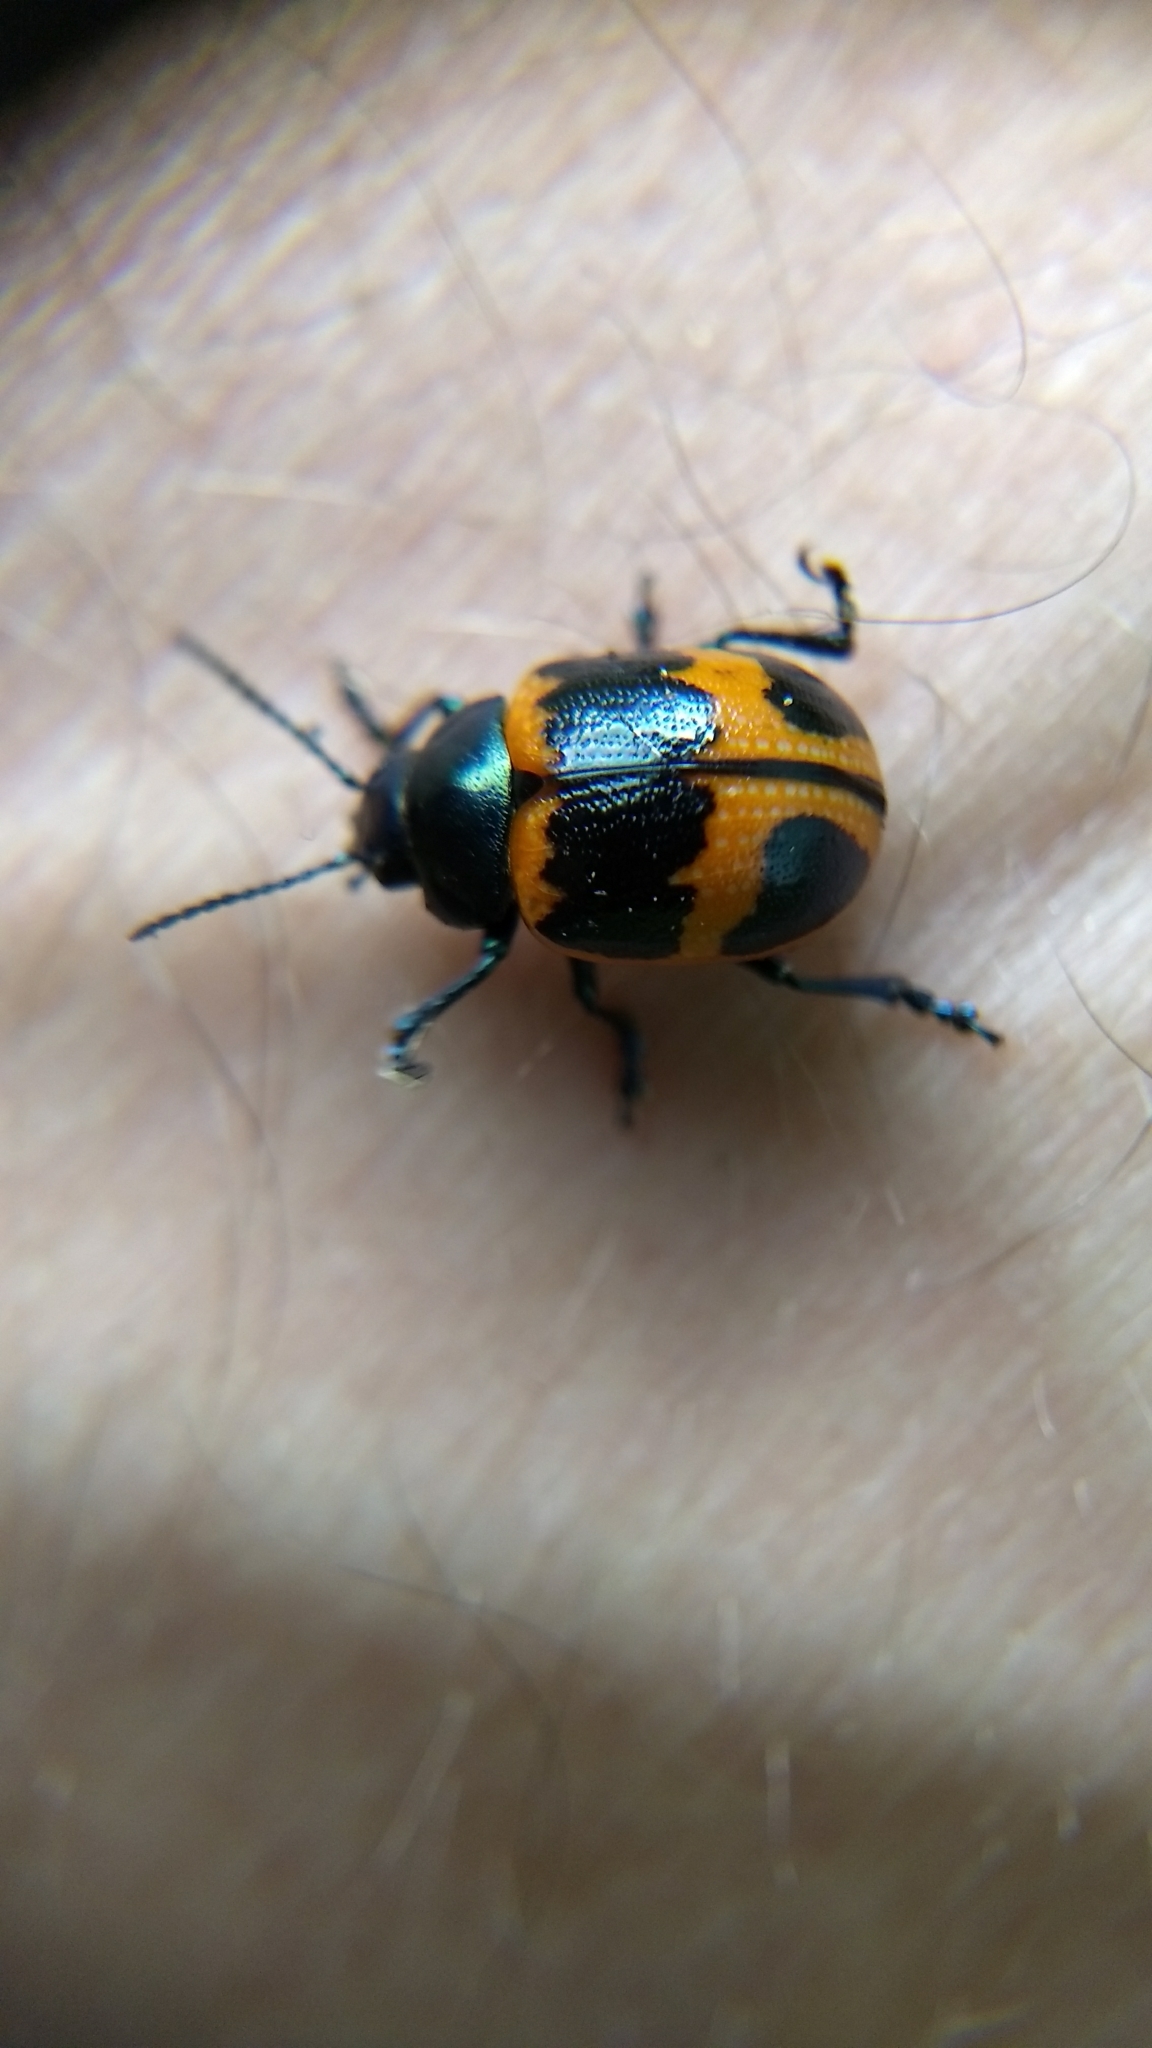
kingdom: Animalia
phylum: Arthropoda
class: Insecta
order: Coleoptera
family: Chrysomelidae
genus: Labidomera
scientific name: Labidomera clivicollis
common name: Swamp milkweed leaf beetle
